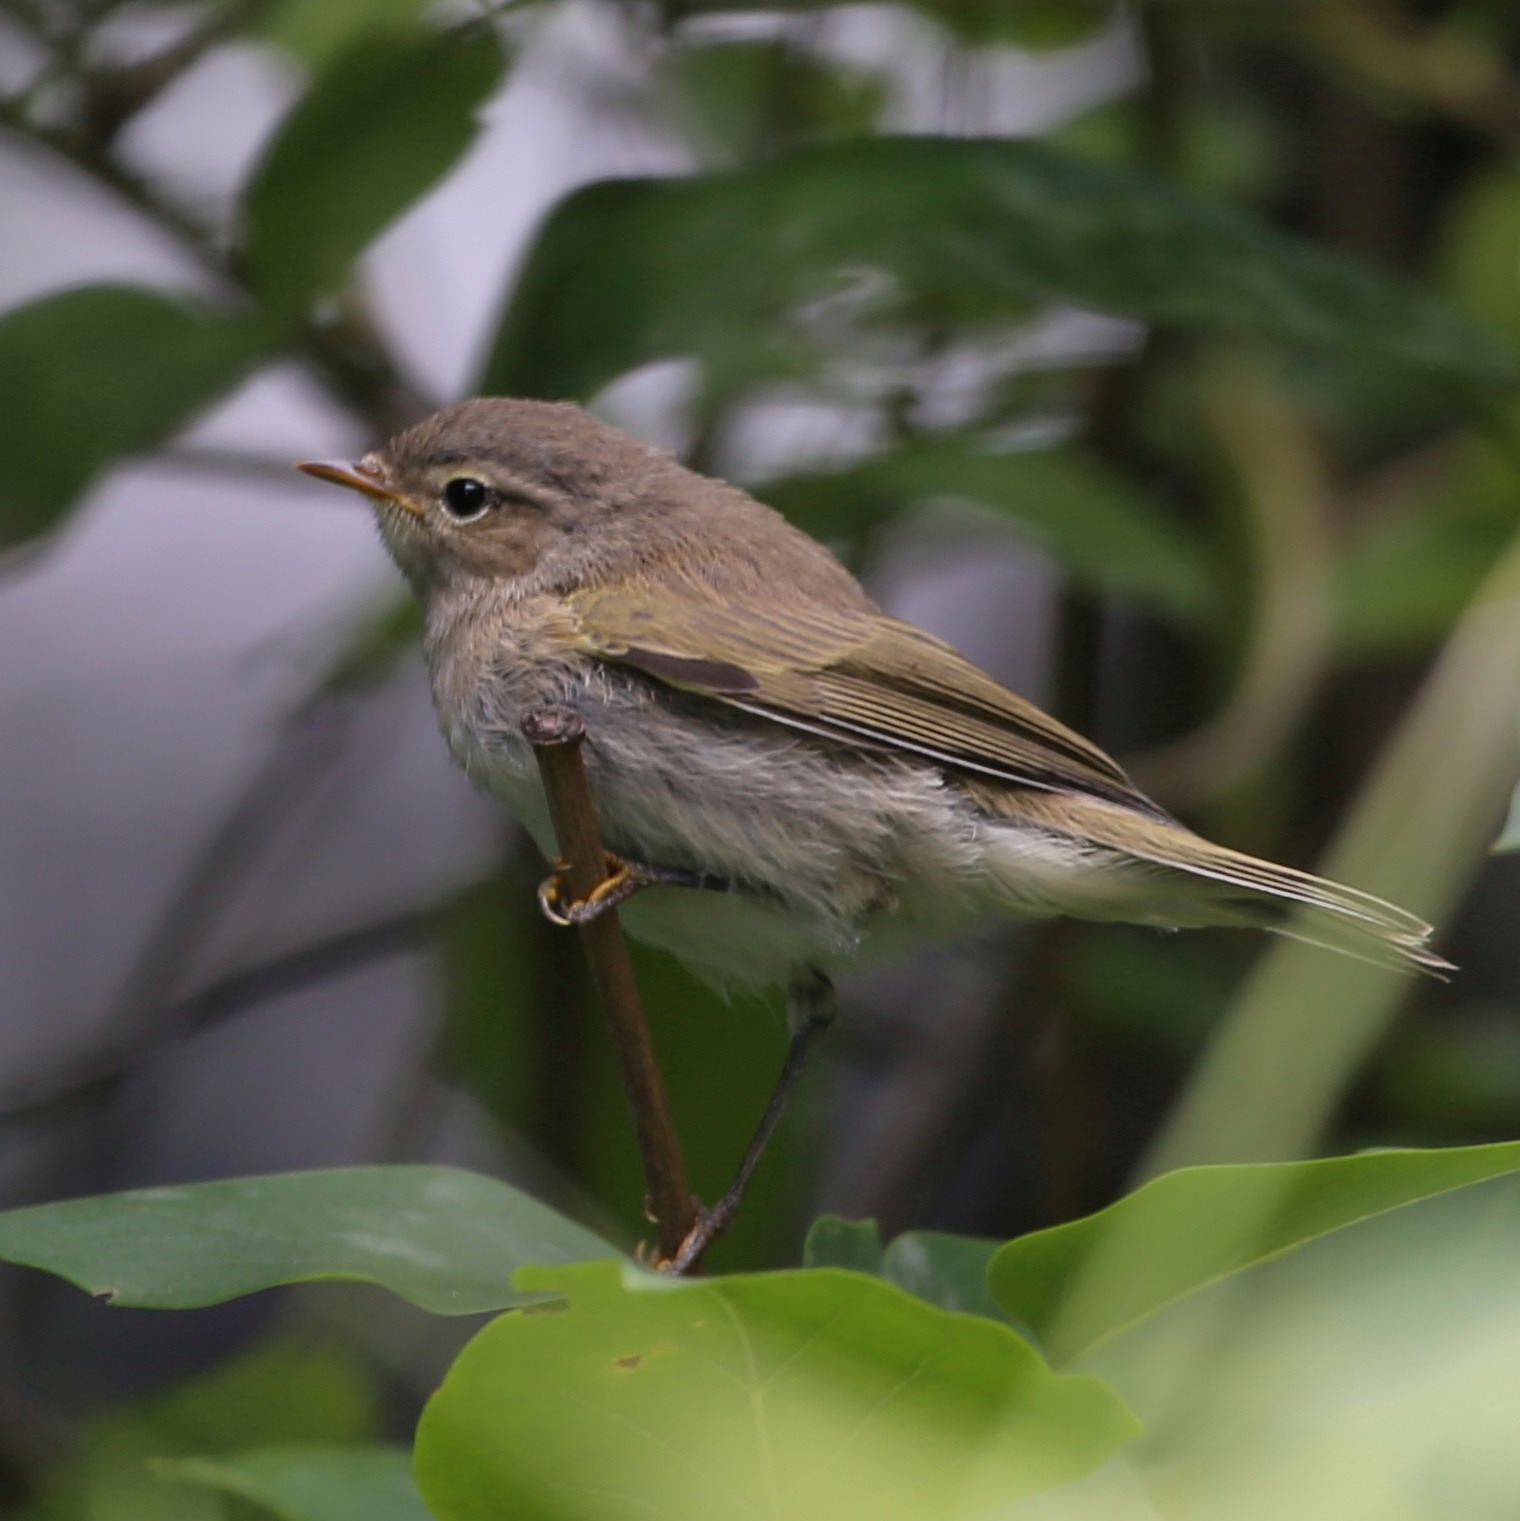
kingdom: Animalia
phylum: Chordata
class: Aves
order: Passeriformes
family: Phylloscopidae
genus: Phylloscopus
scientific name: Phylloscopus collybita
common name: Common chiffchaff
